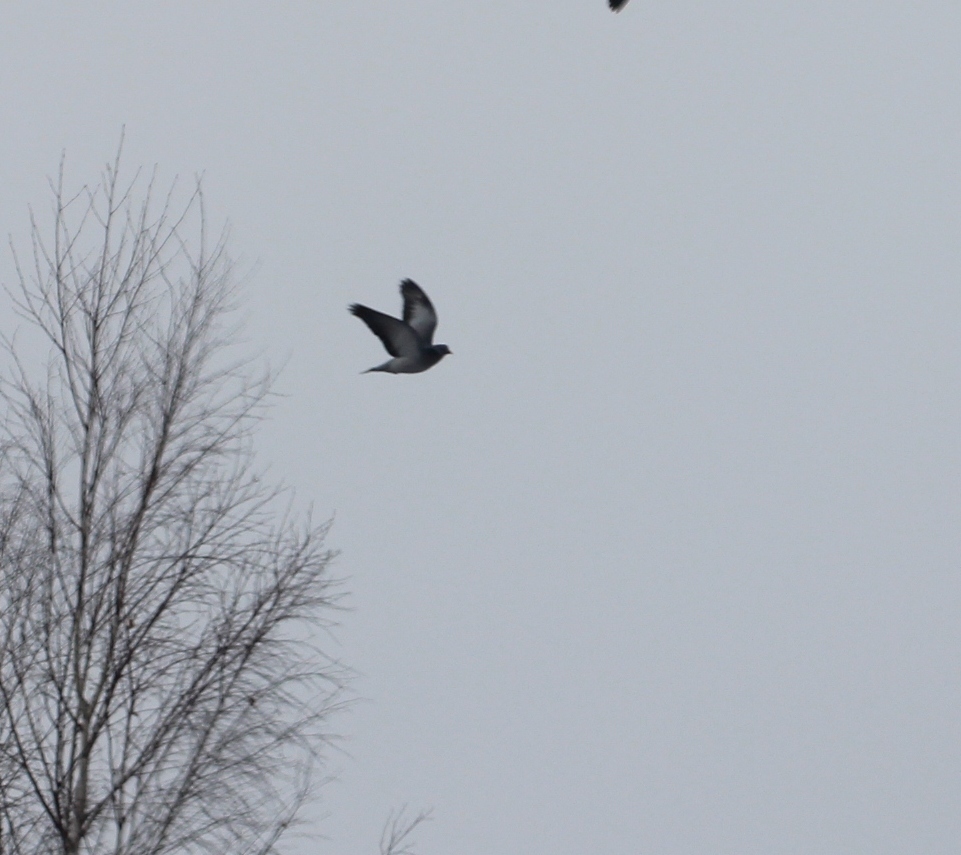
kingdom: Animalia
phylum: Chordata
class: Aves
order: Columbiformes
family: Columbidae
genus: Columba
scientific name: Columba oenas
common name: Stock dove
